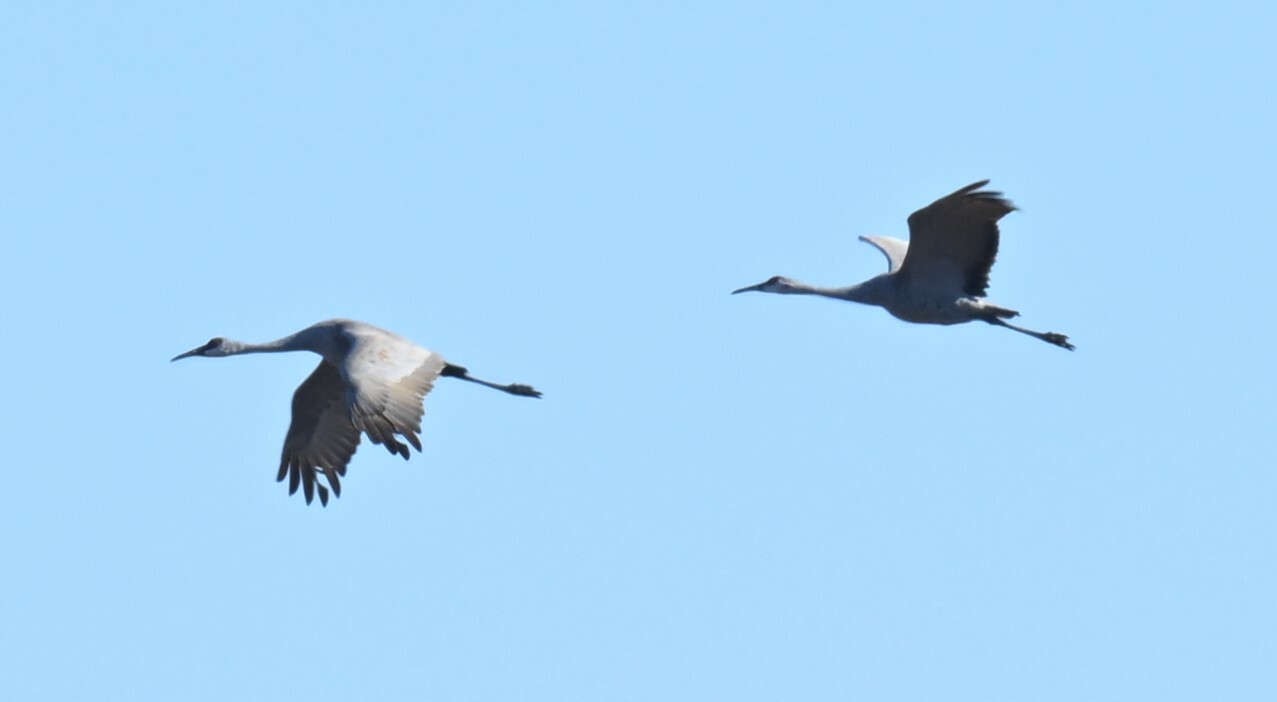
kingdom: Animalia
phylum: Chordata
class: Aves
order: Gruiformes
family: Gruidae
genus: Grus
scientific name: Grus canadensis
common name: Sandhill crane
